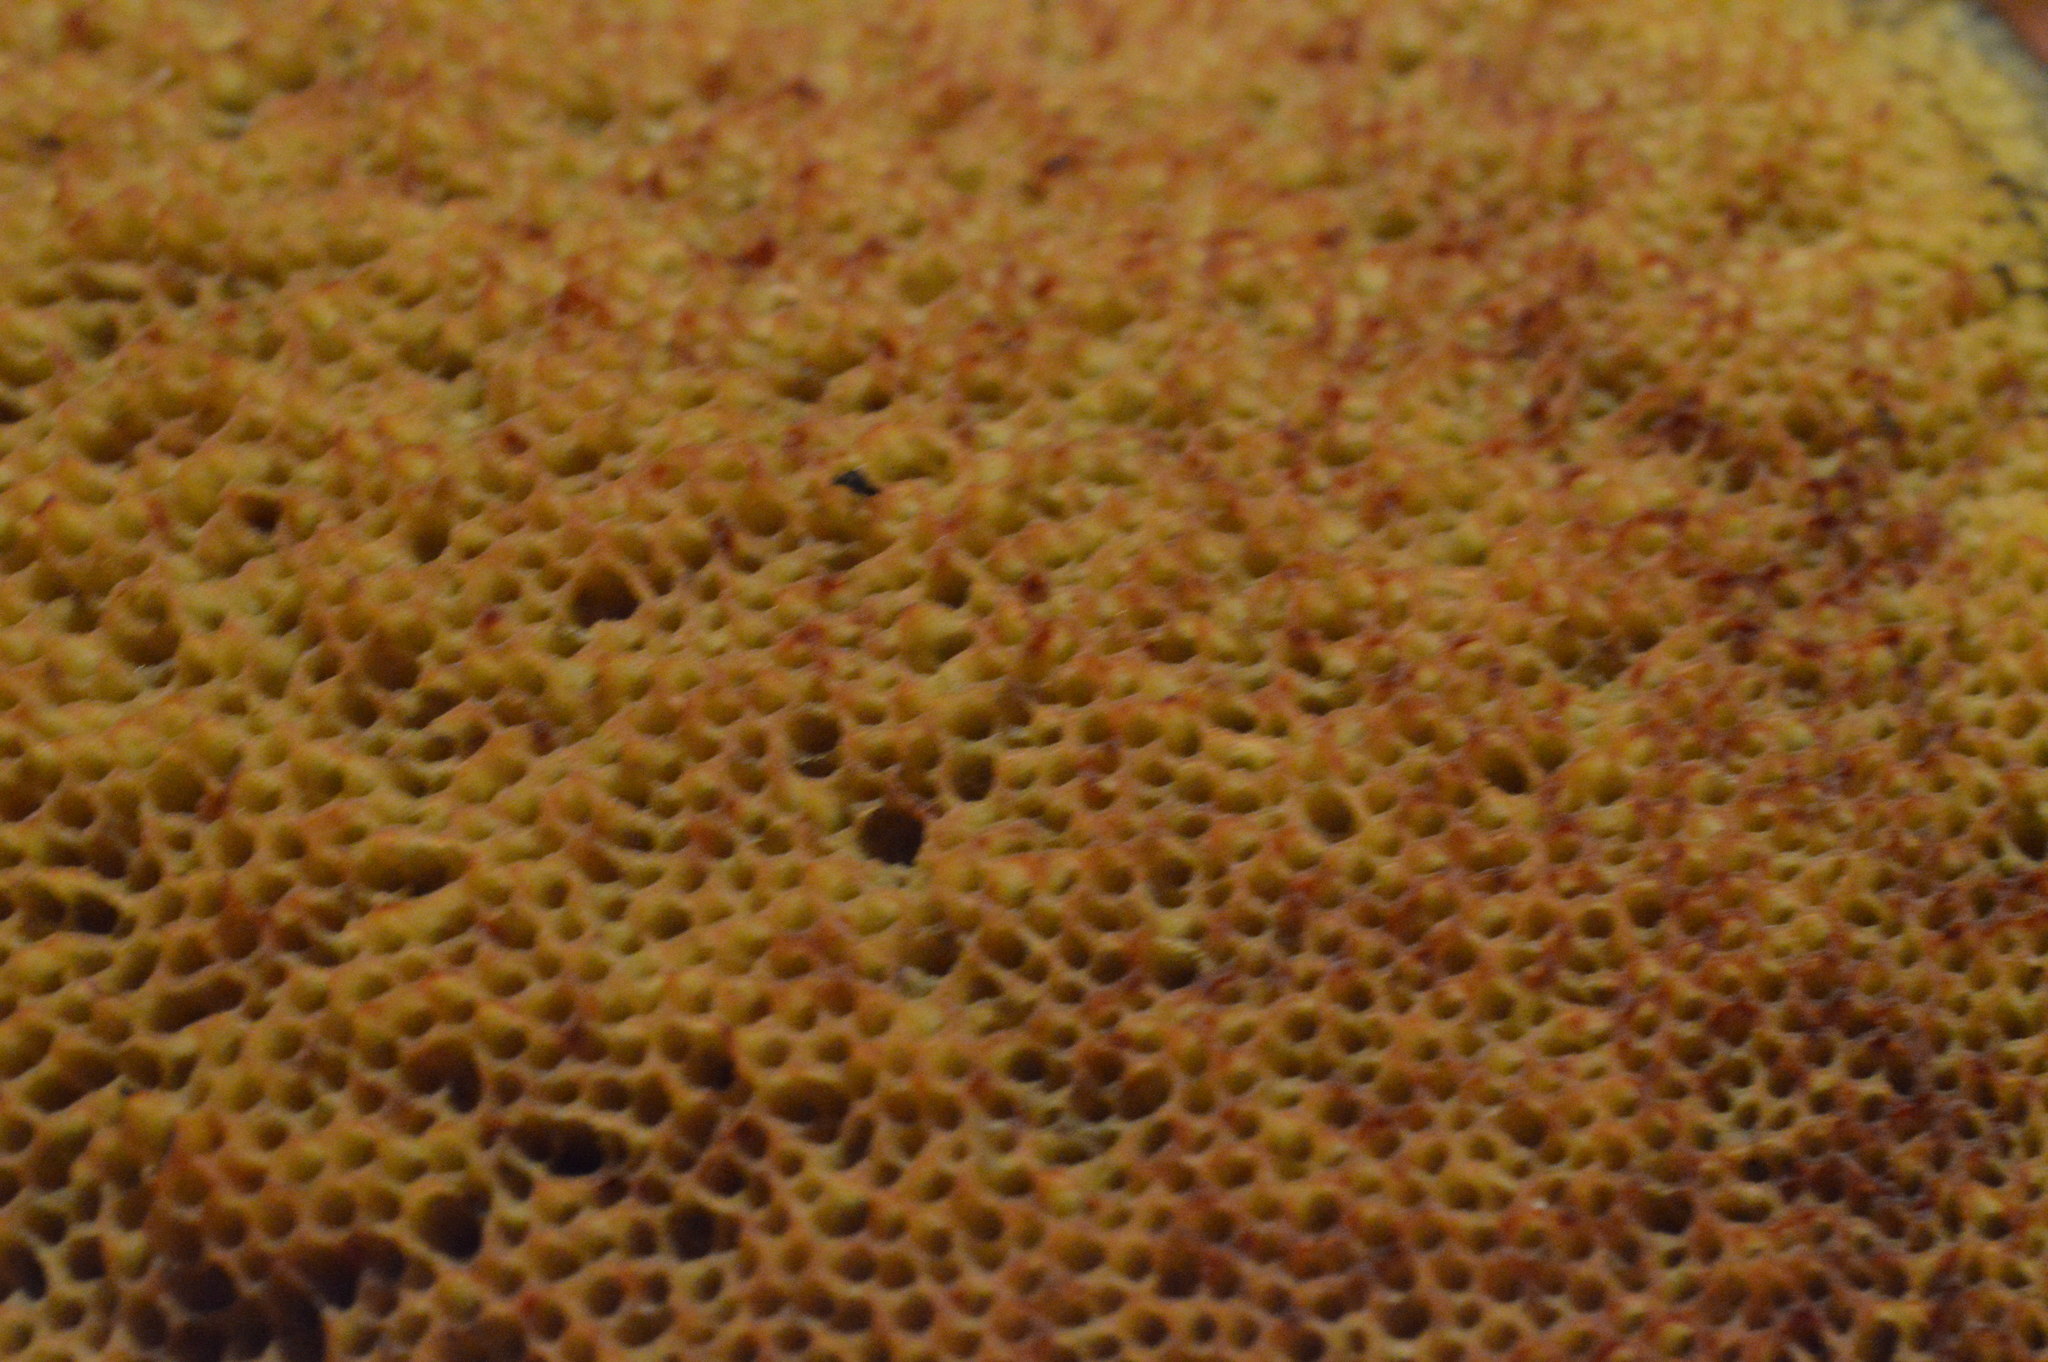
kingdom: Fungi
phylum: Basidiomycota
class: Agaricomycetes
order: Boletales
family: Boletaceae
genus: Suillellus
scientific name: Suillellus luridus
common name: Lurid bolete
